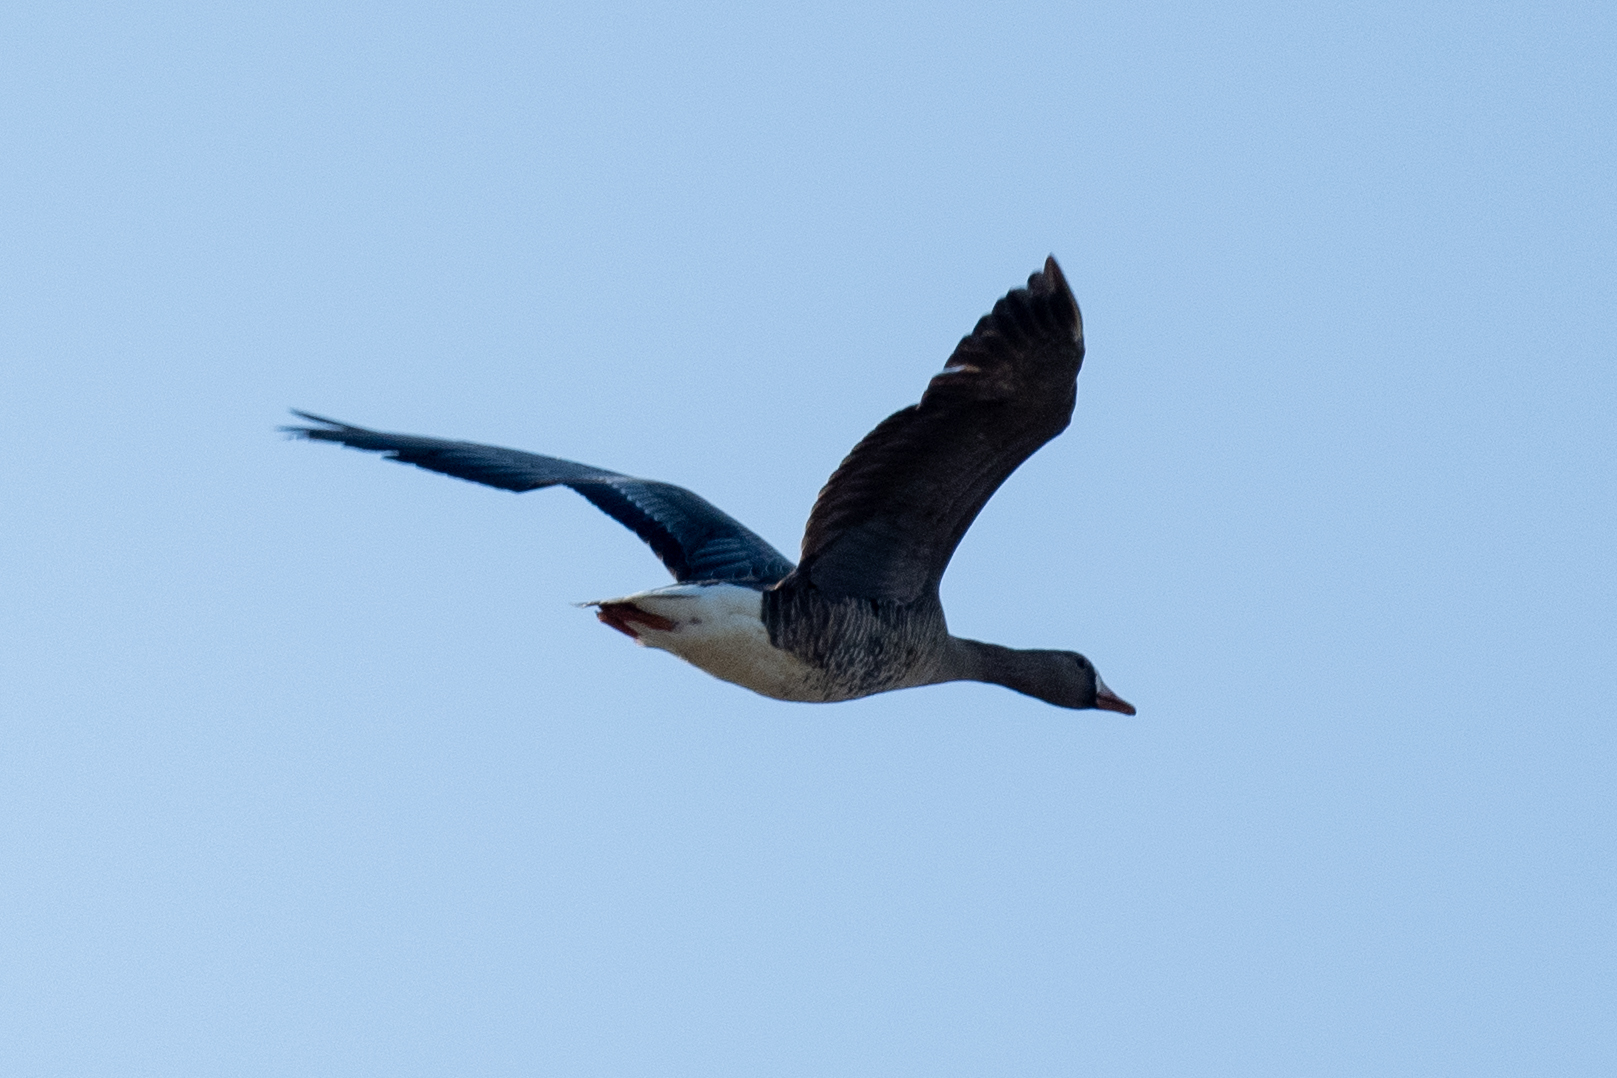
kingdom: Animalia
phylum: Chordata
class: Aves
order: Anseriformes
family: Anatidae
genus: Anser
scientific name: Anser albifrons
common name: Greater white-fronted goose
